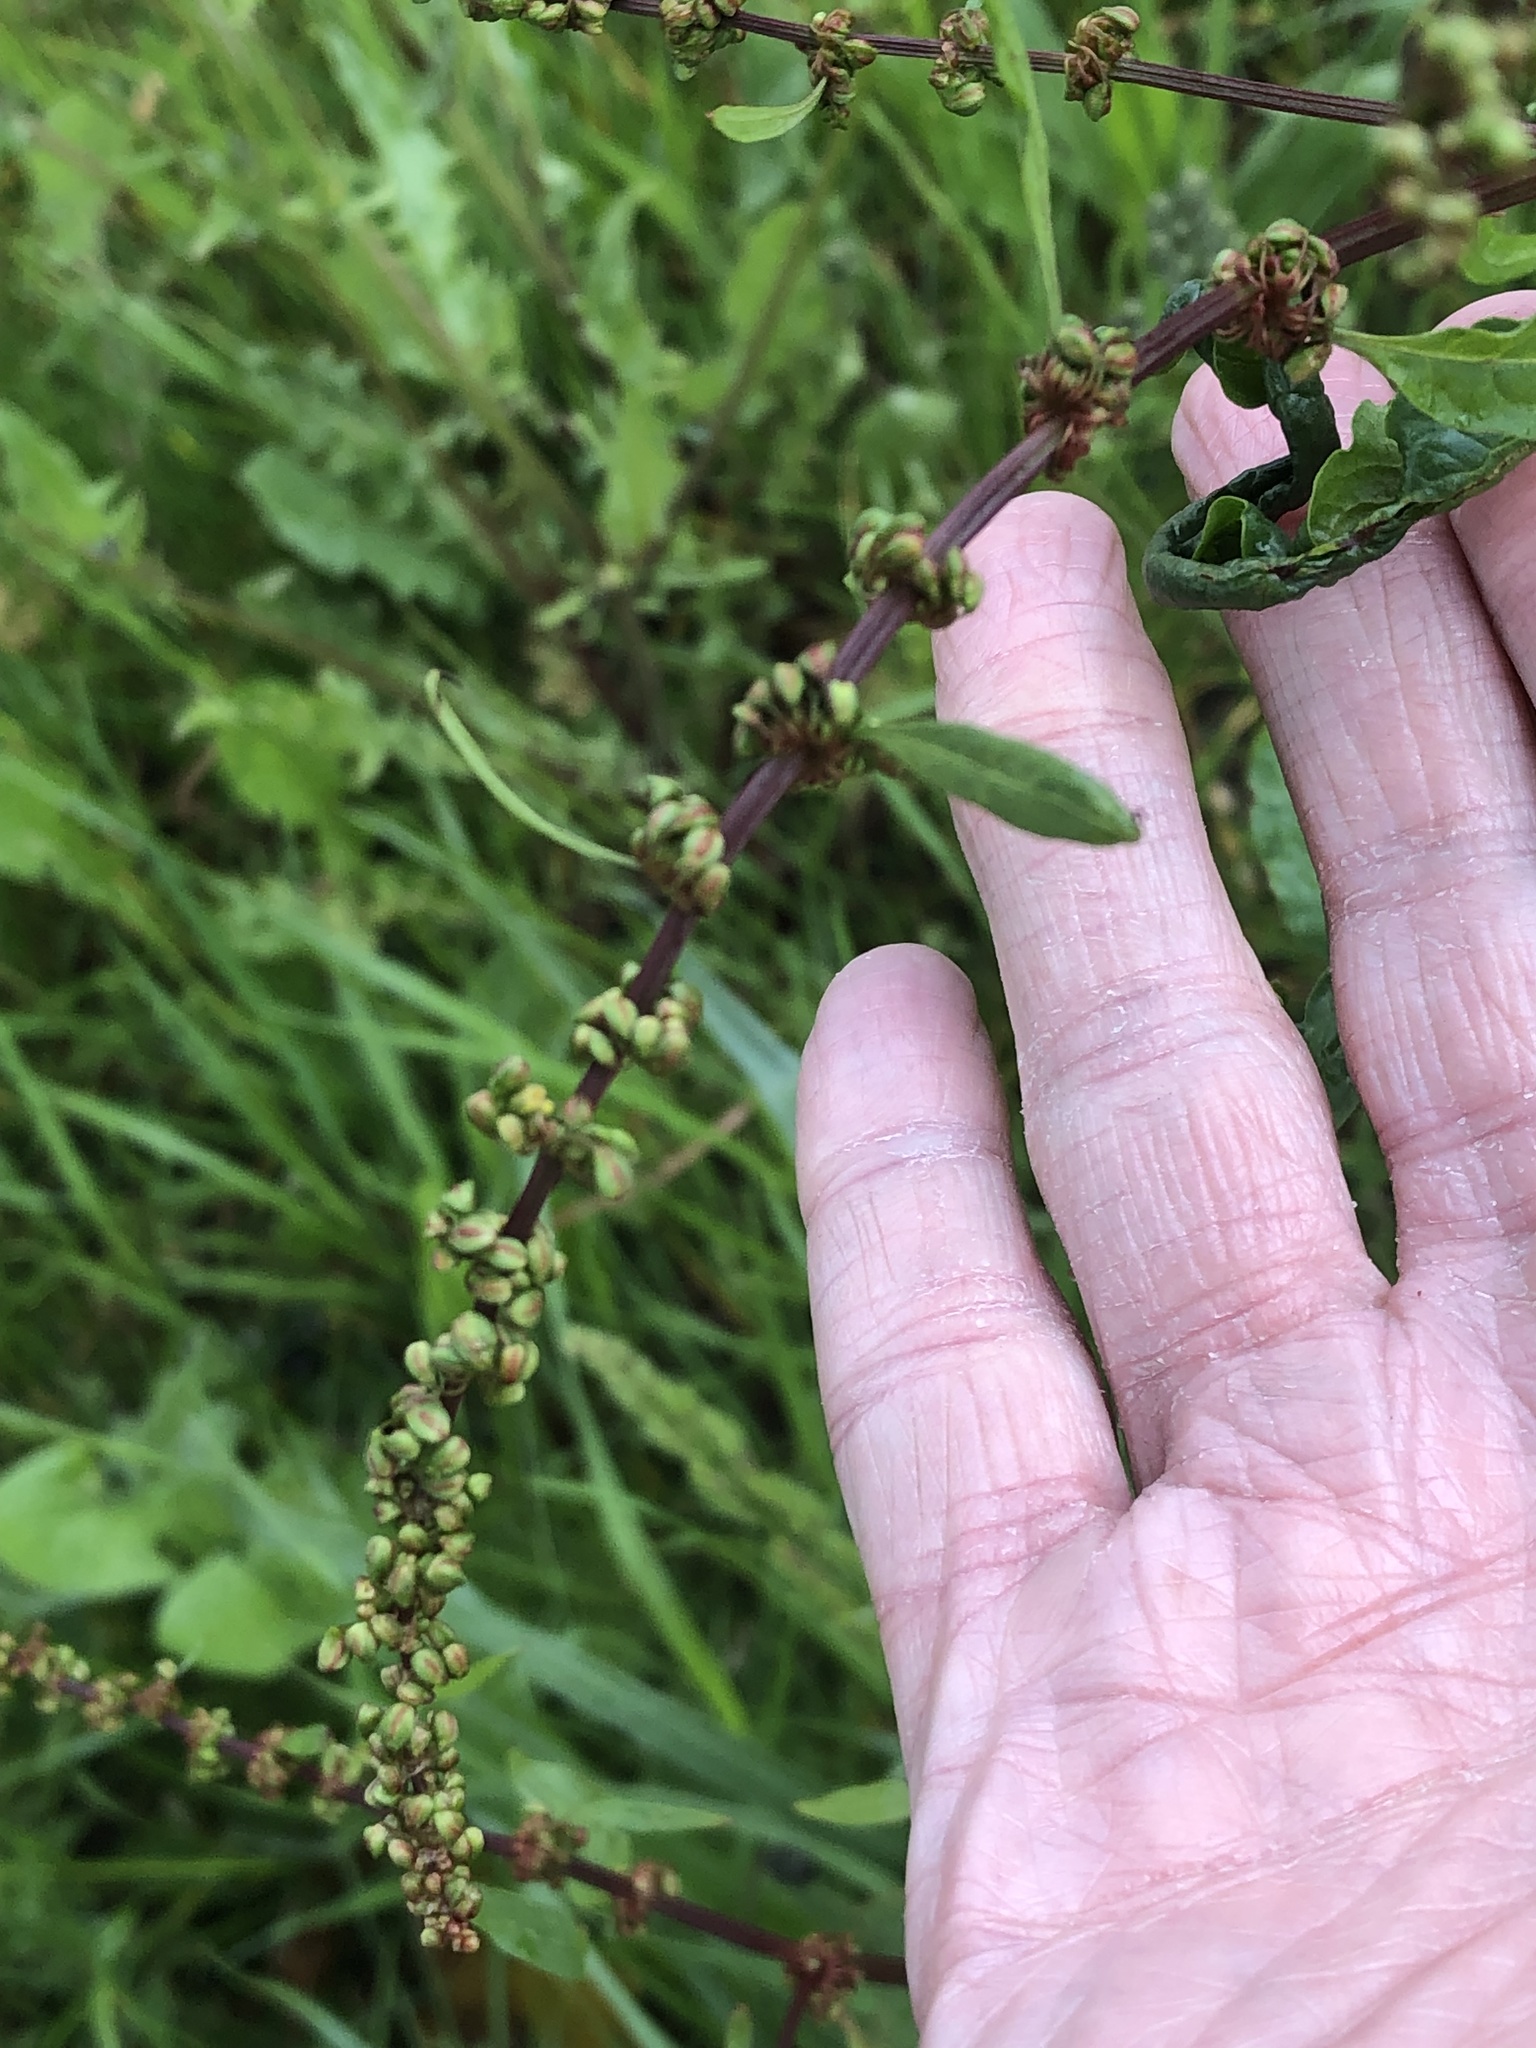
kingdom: Plantae
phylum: Tracheophyta
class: Magnoliopsida
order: Caryophyllales
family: Polygonaceae
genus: Rumex
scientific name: Rumex obtusifolius
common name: Bitter dock
